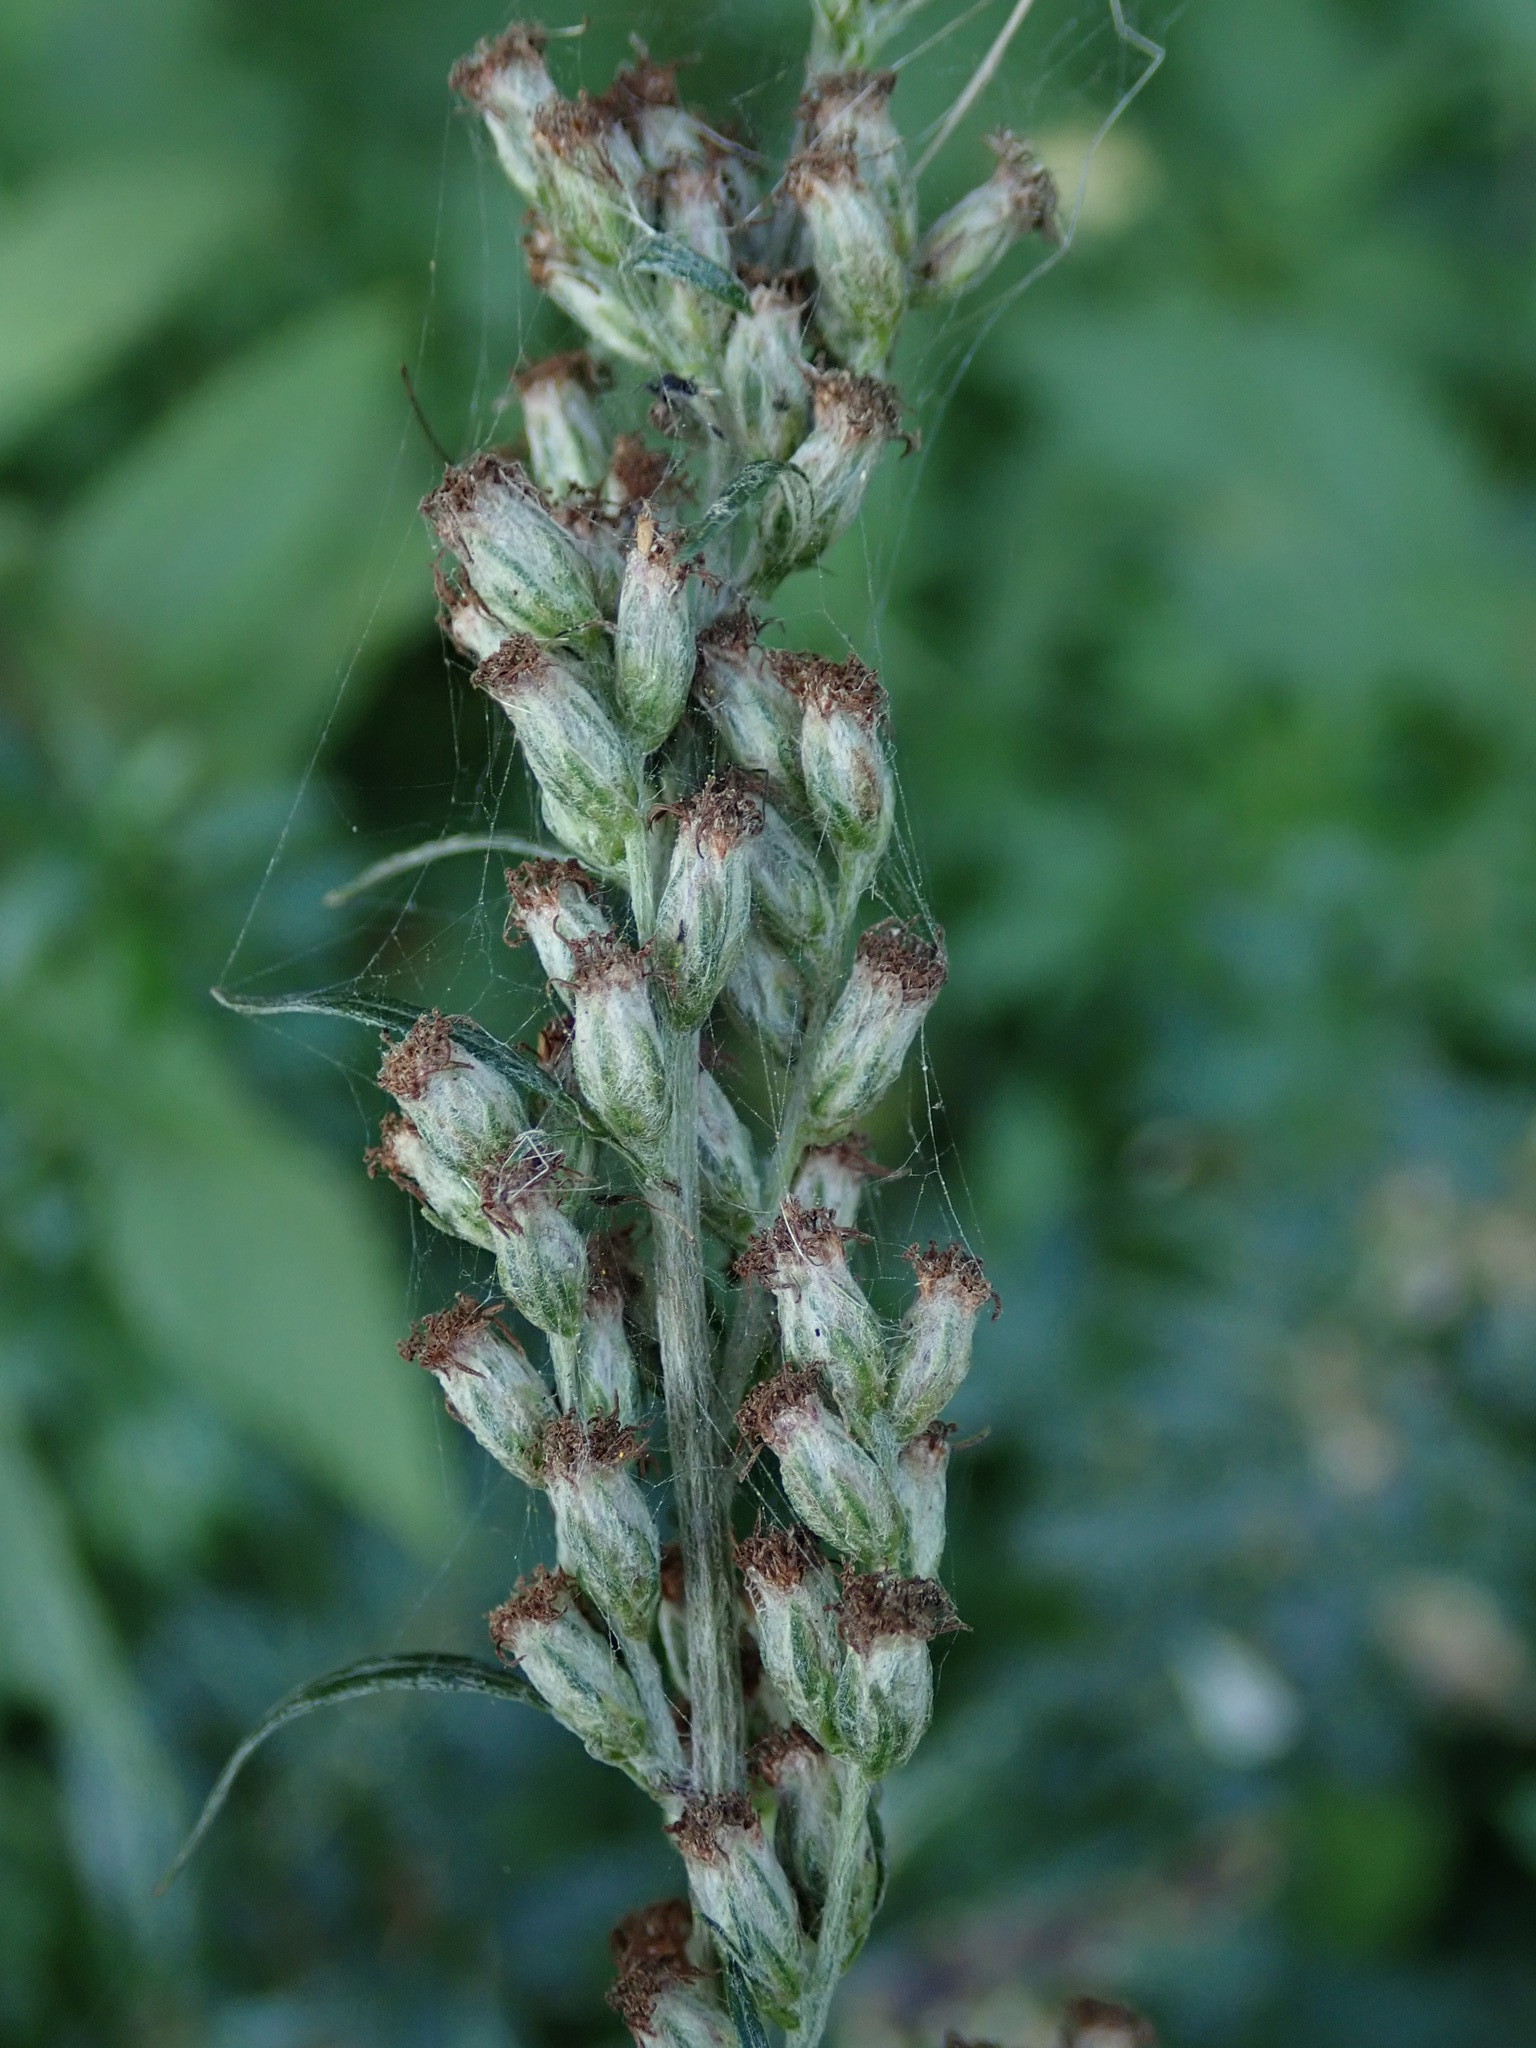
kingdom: Plantae
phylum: Tracheophyta
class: Magnoliopsida
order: Asterales
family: Asteraceae
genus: Artemisia
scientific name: Artemisia vulgaris
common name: Mugwort
